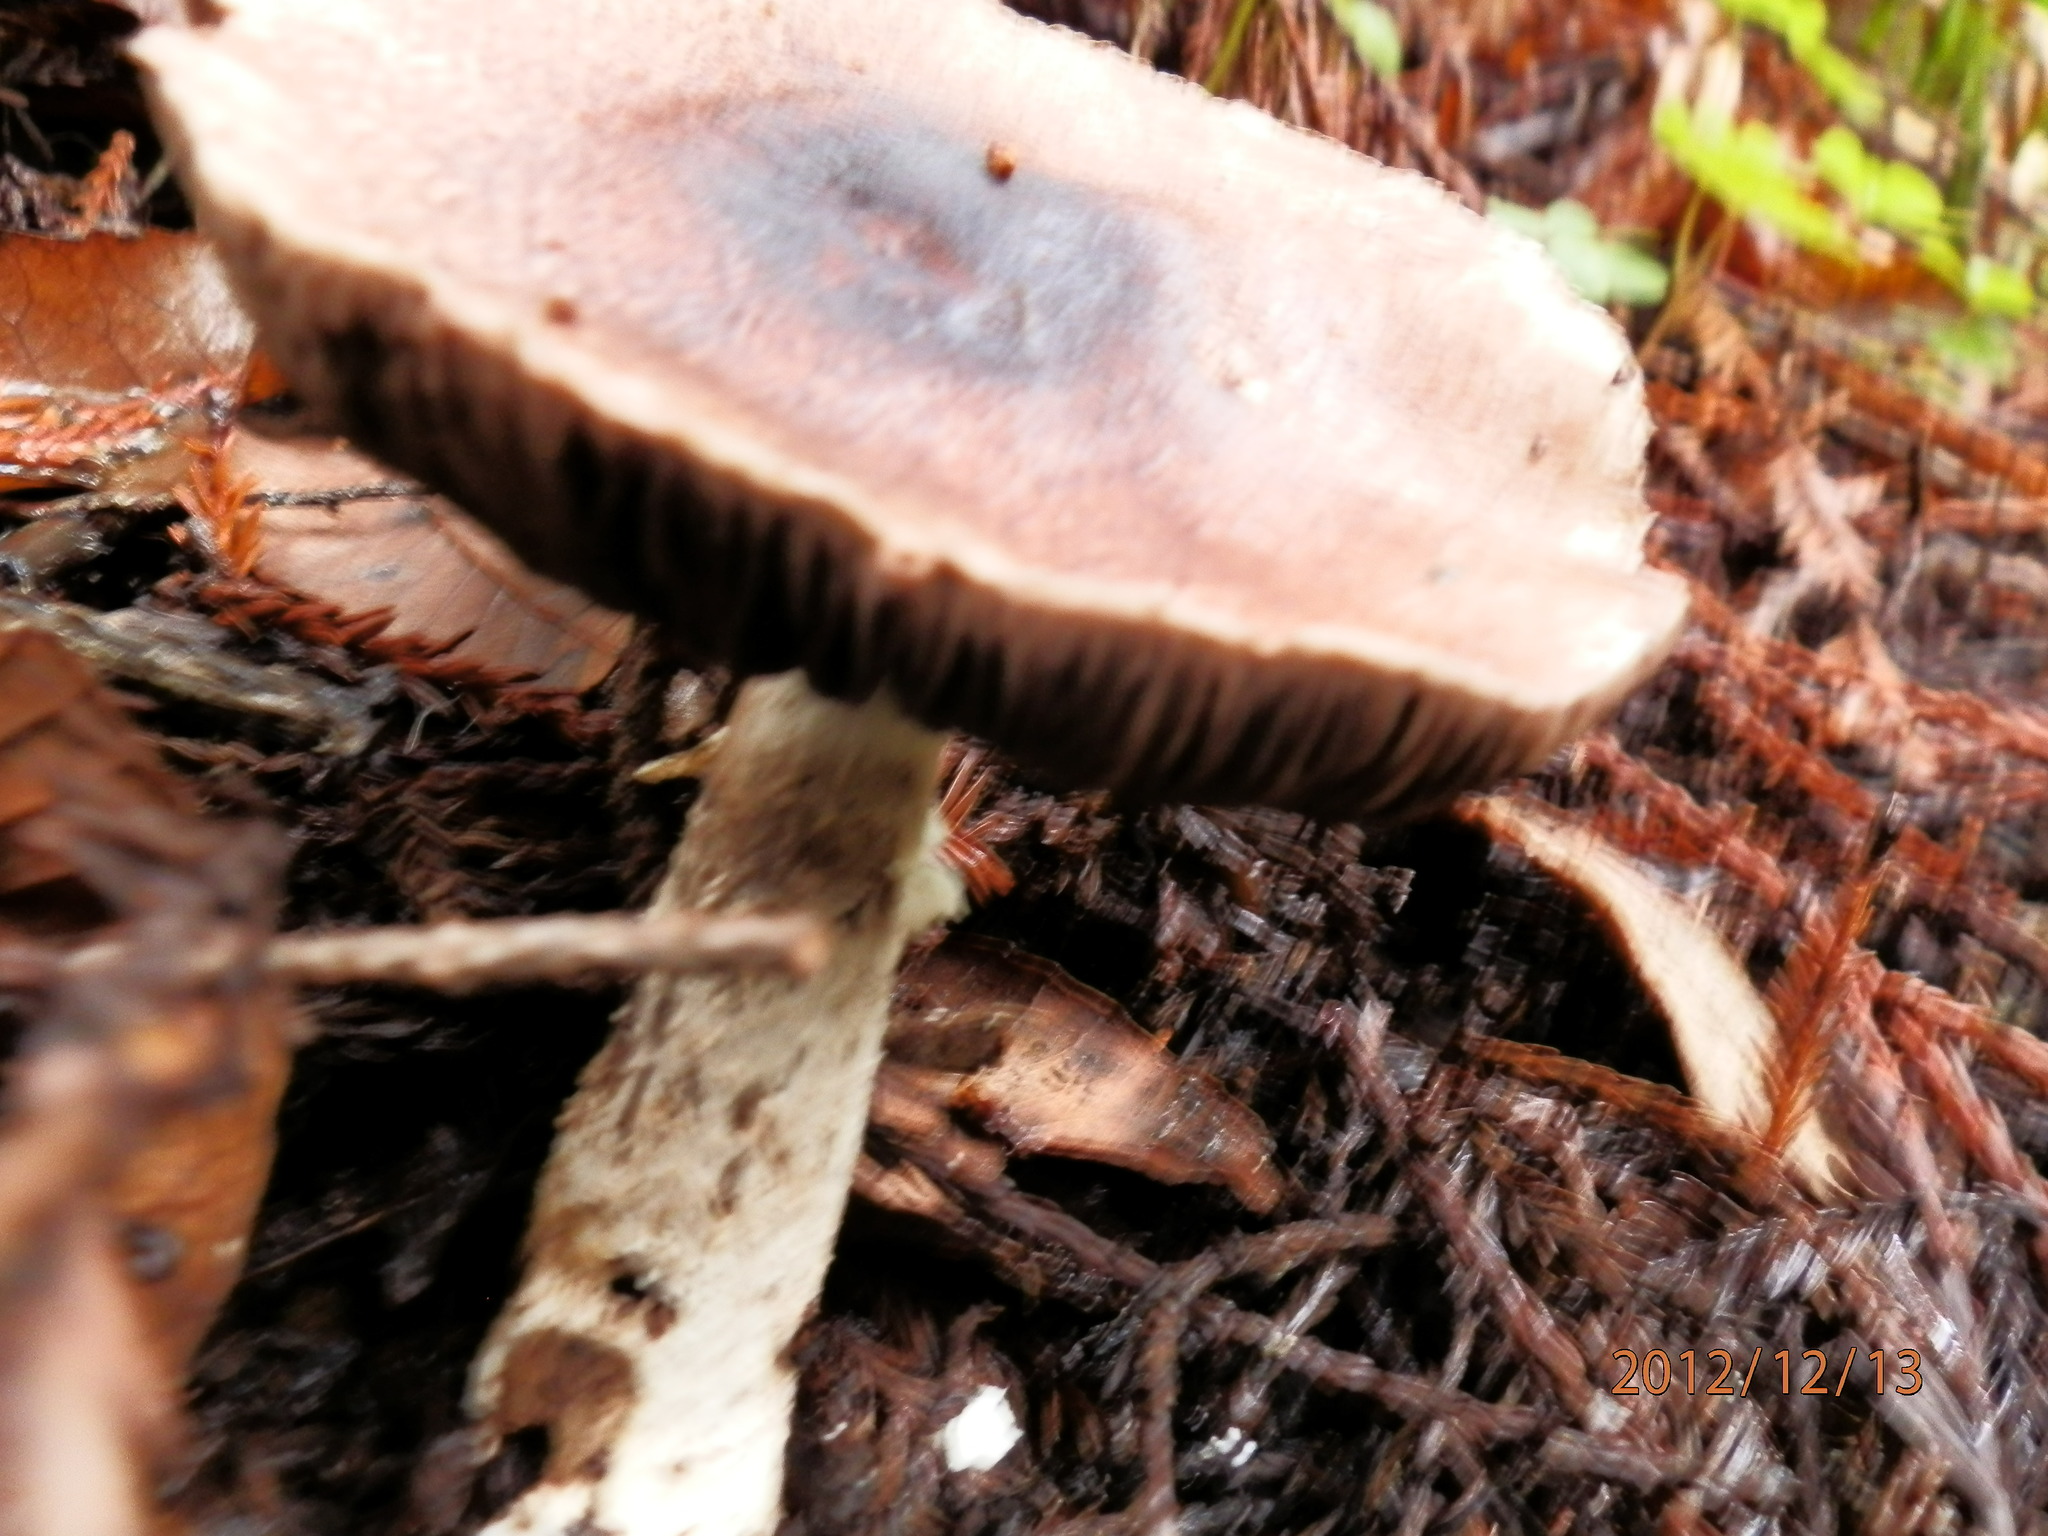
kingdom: Fungi
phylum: Basidiomycota
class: Agaricomycetes
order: Agaricales
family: Agaricaceae
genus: Agaricus
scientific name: Agaricus subrutilescens
